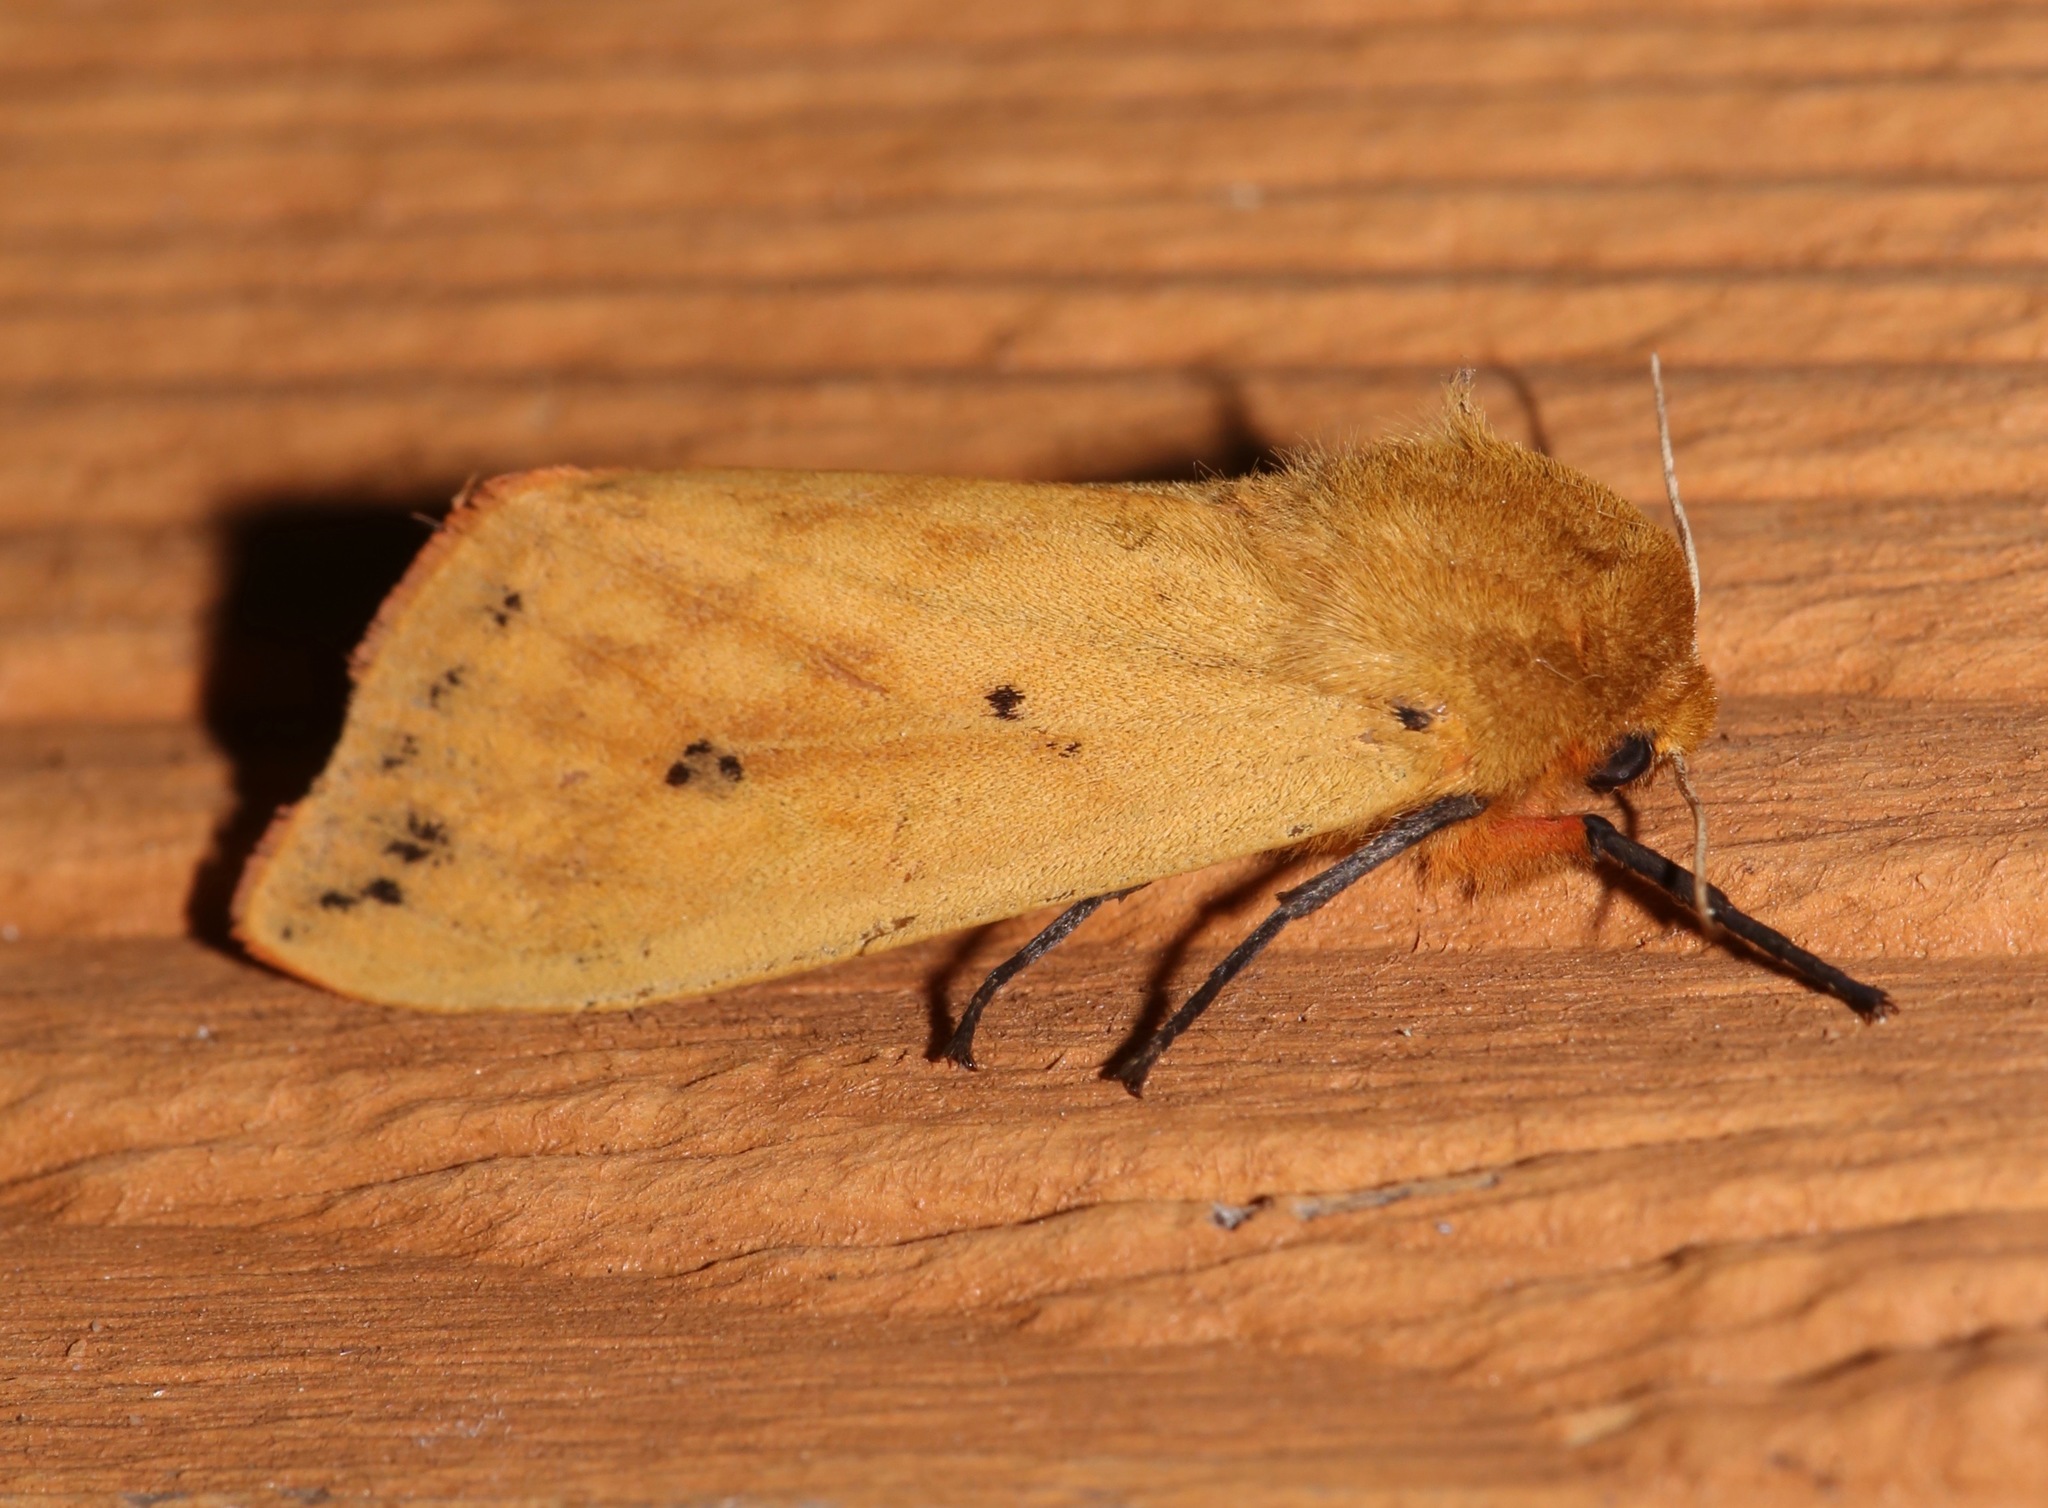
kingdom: Animalia
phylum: Arthropoda
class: Insecta
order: Lepidoptera
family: Erebidae
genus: Pyrrharctia
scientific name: Pyrrharctia isabella
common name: Isabella tiger moth
